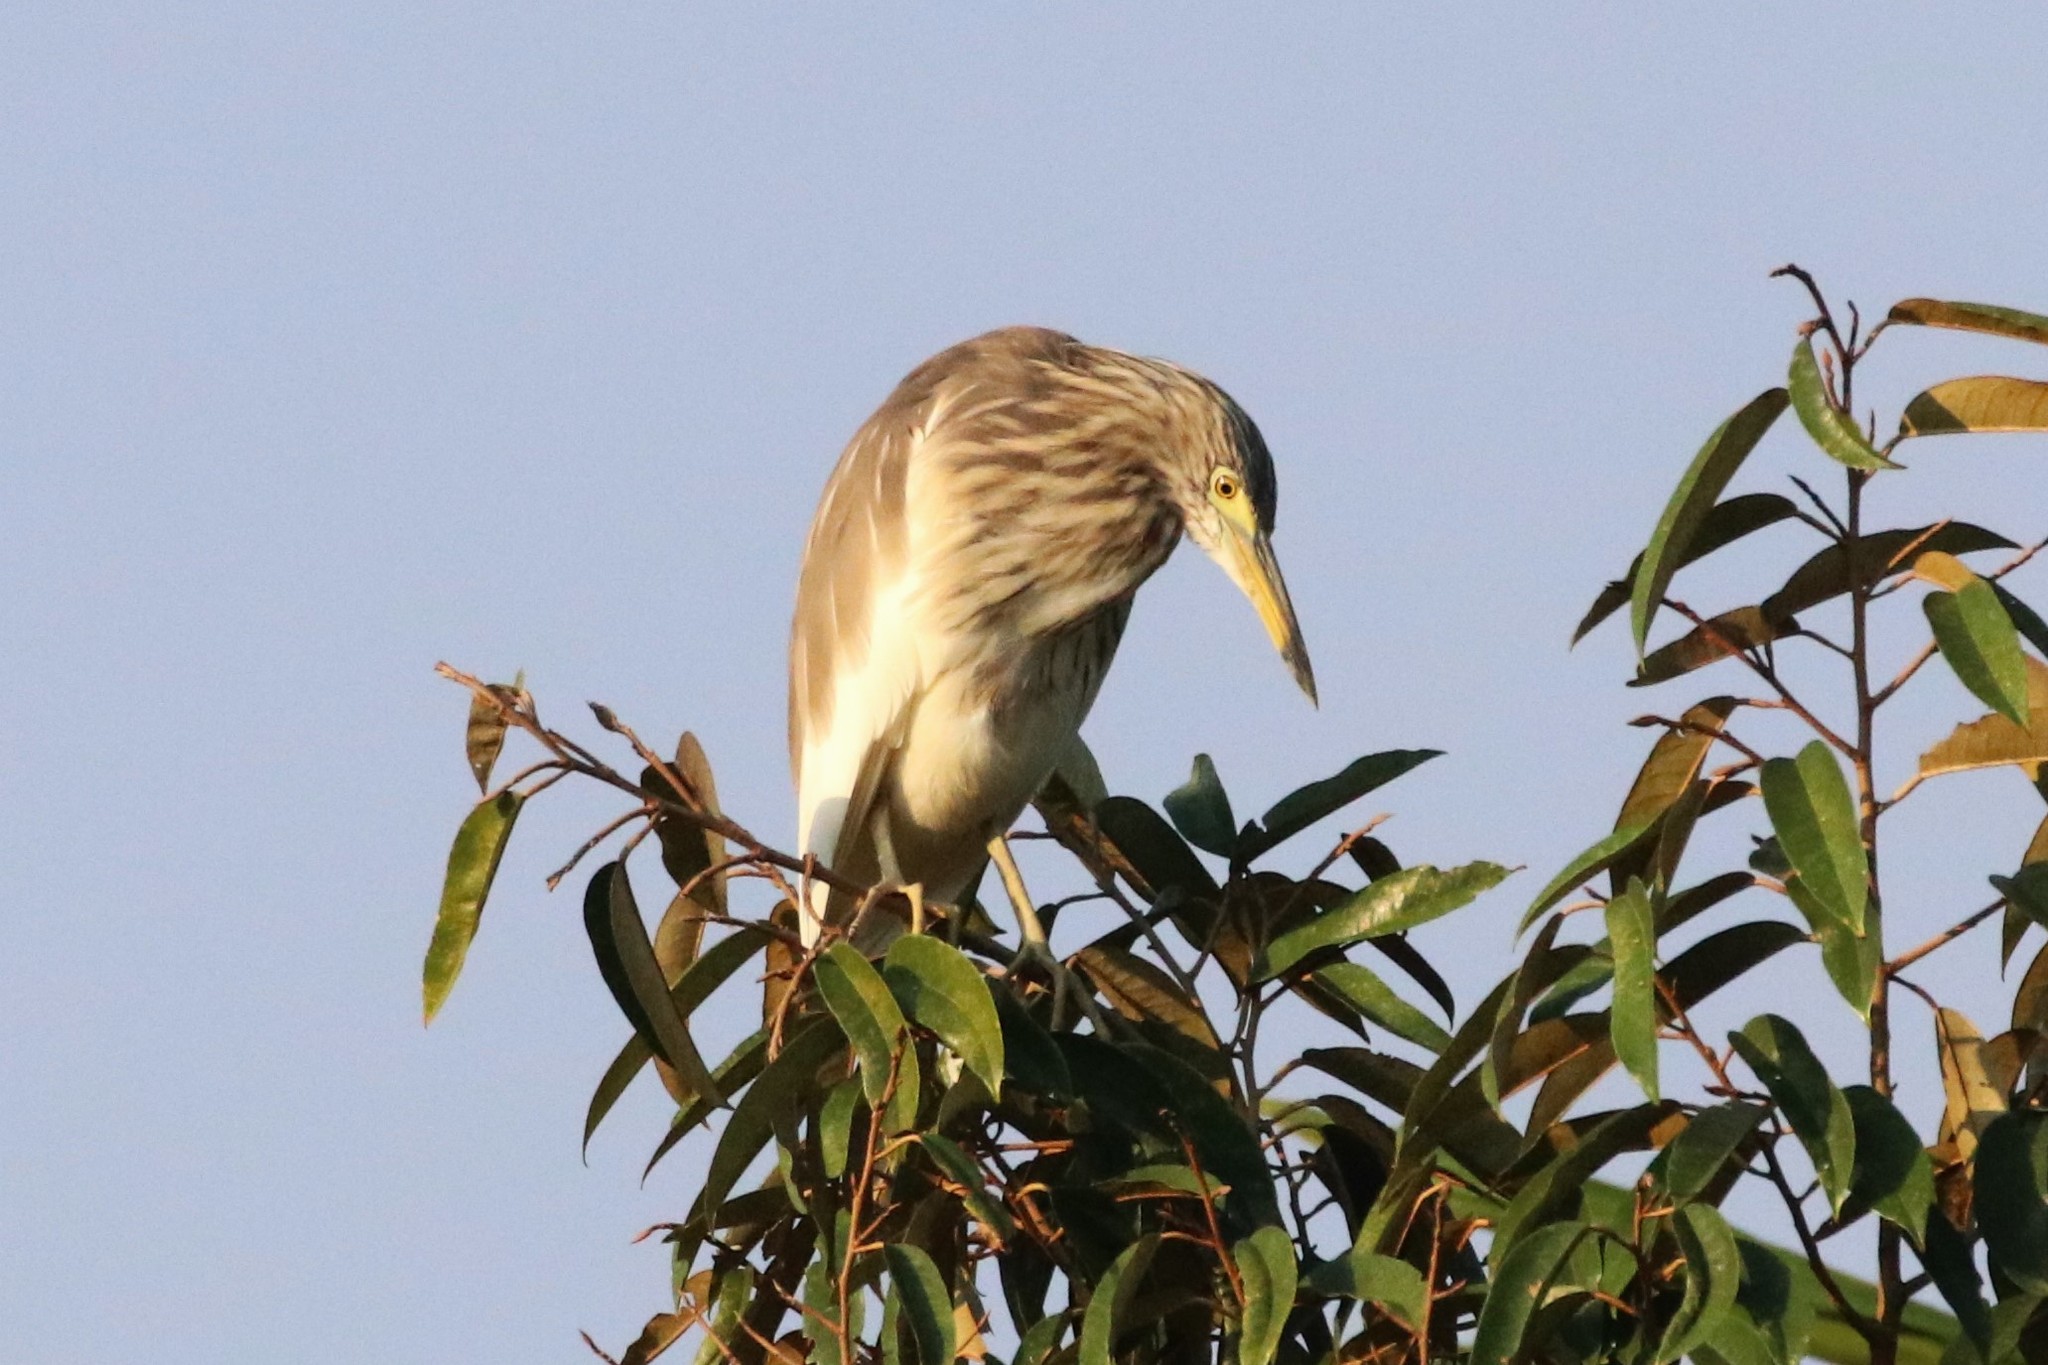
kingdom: Animalia
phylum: Chordata
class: Aves
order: Pelecaniformes
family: Ardeidae
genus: Ardeola
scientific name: Ardeola
